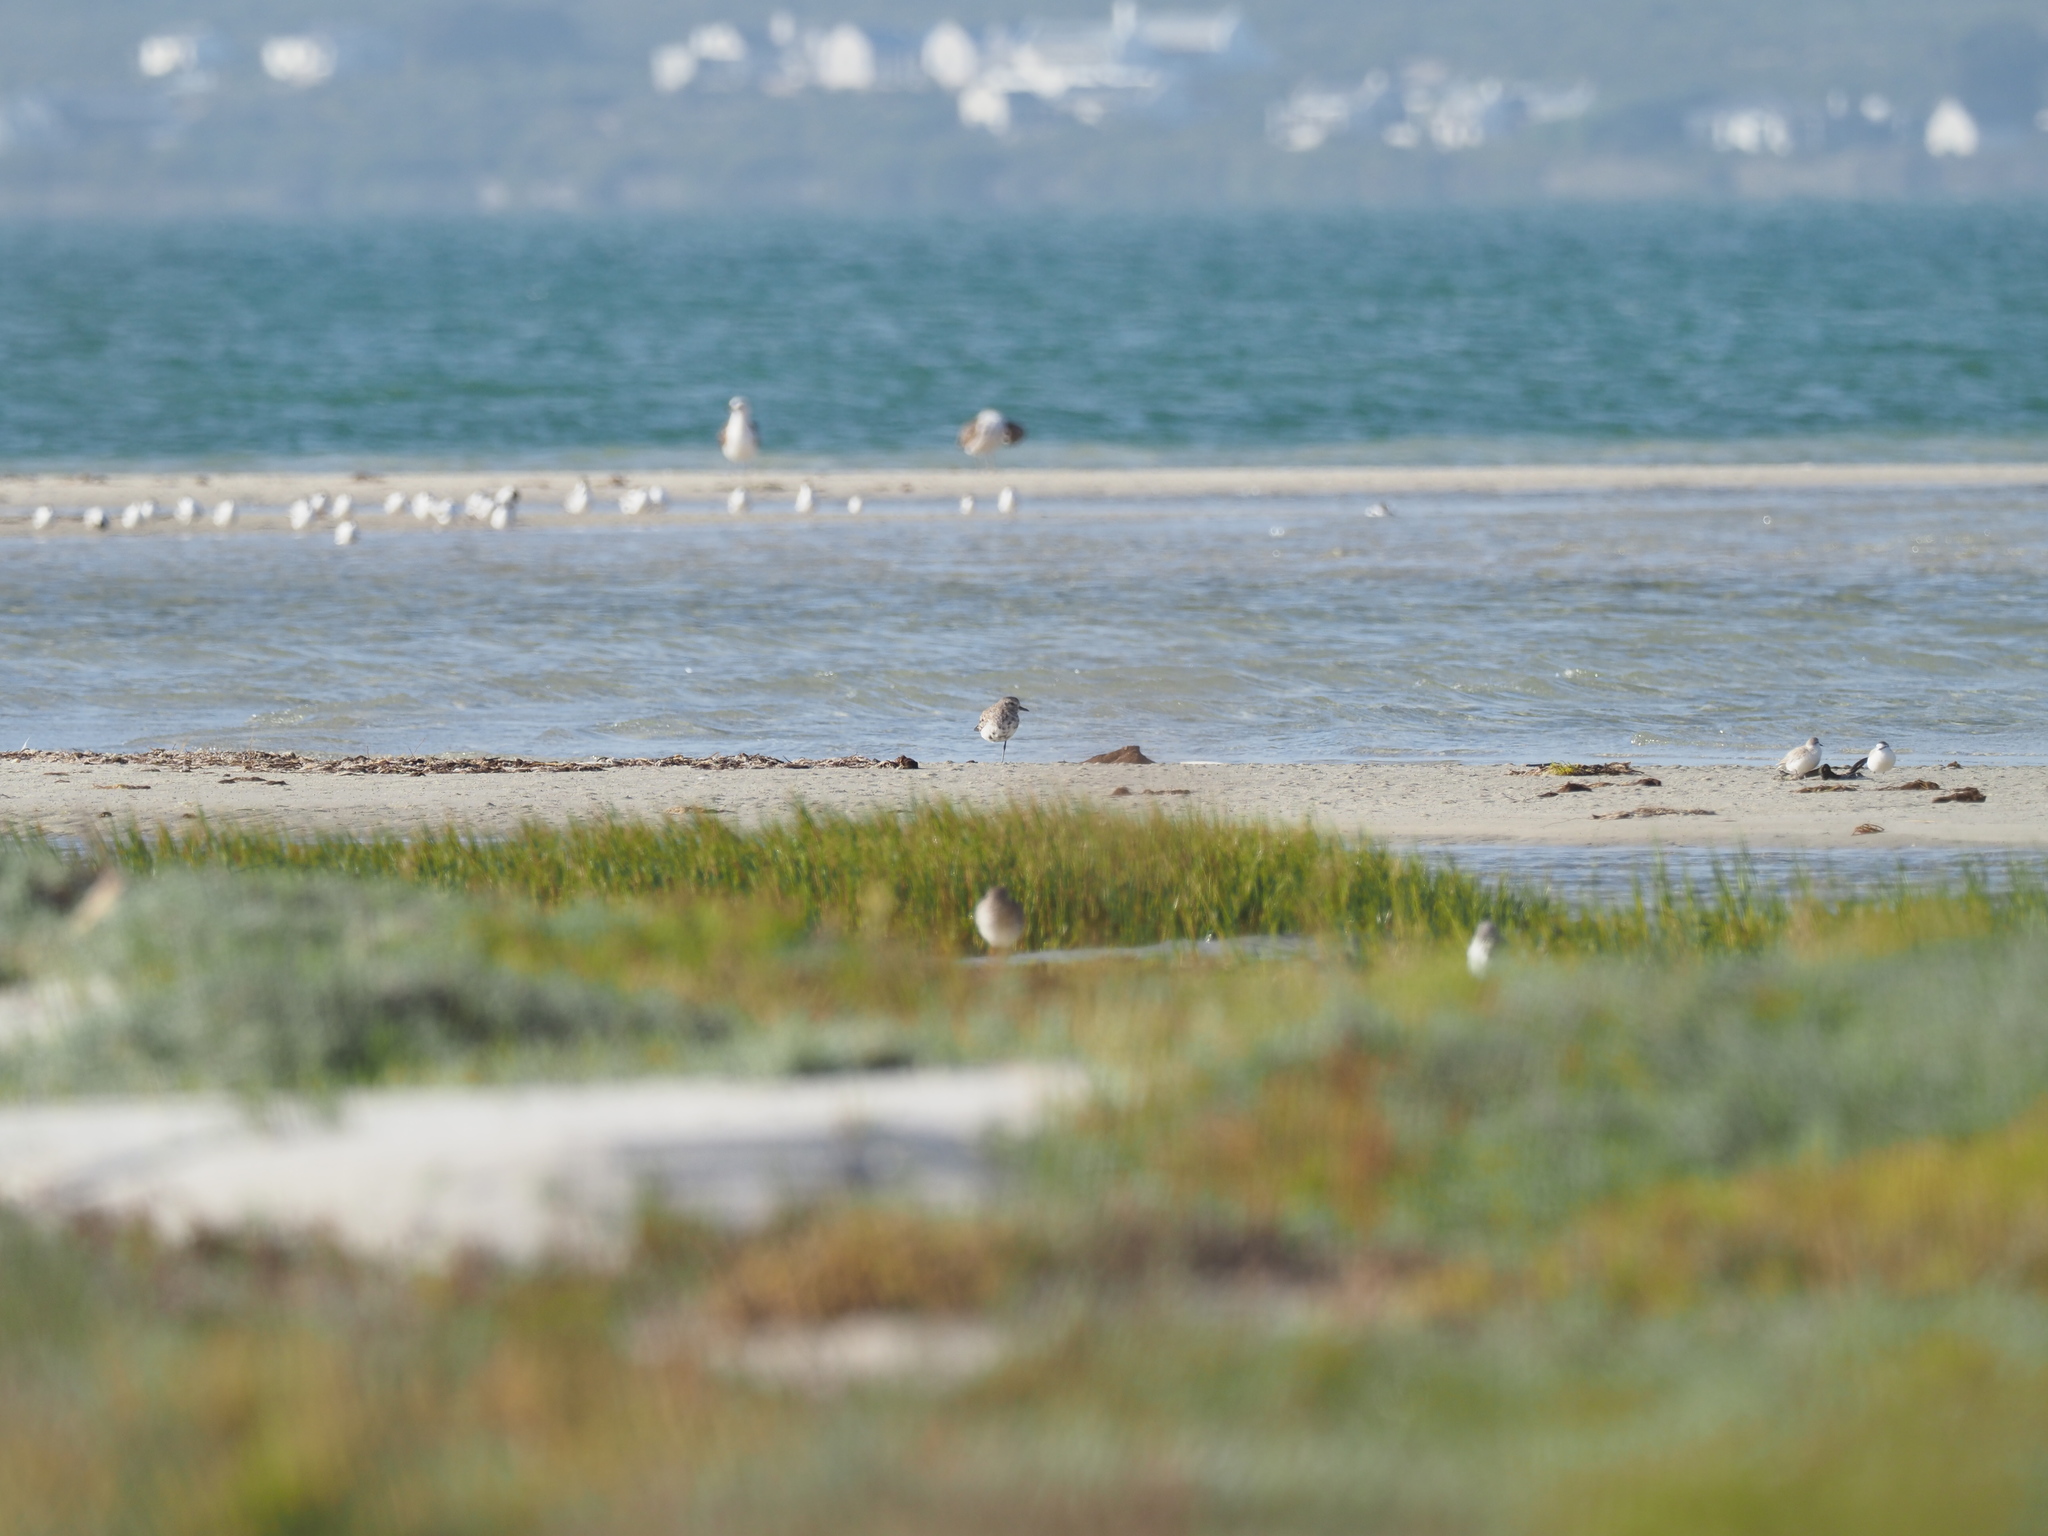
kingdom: Animalia
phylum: Chordata
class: Aves
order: Charadriiformes
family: Charadriidae
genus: Pluvialis
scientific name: Pluvialis squatarola
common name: Grey plover
